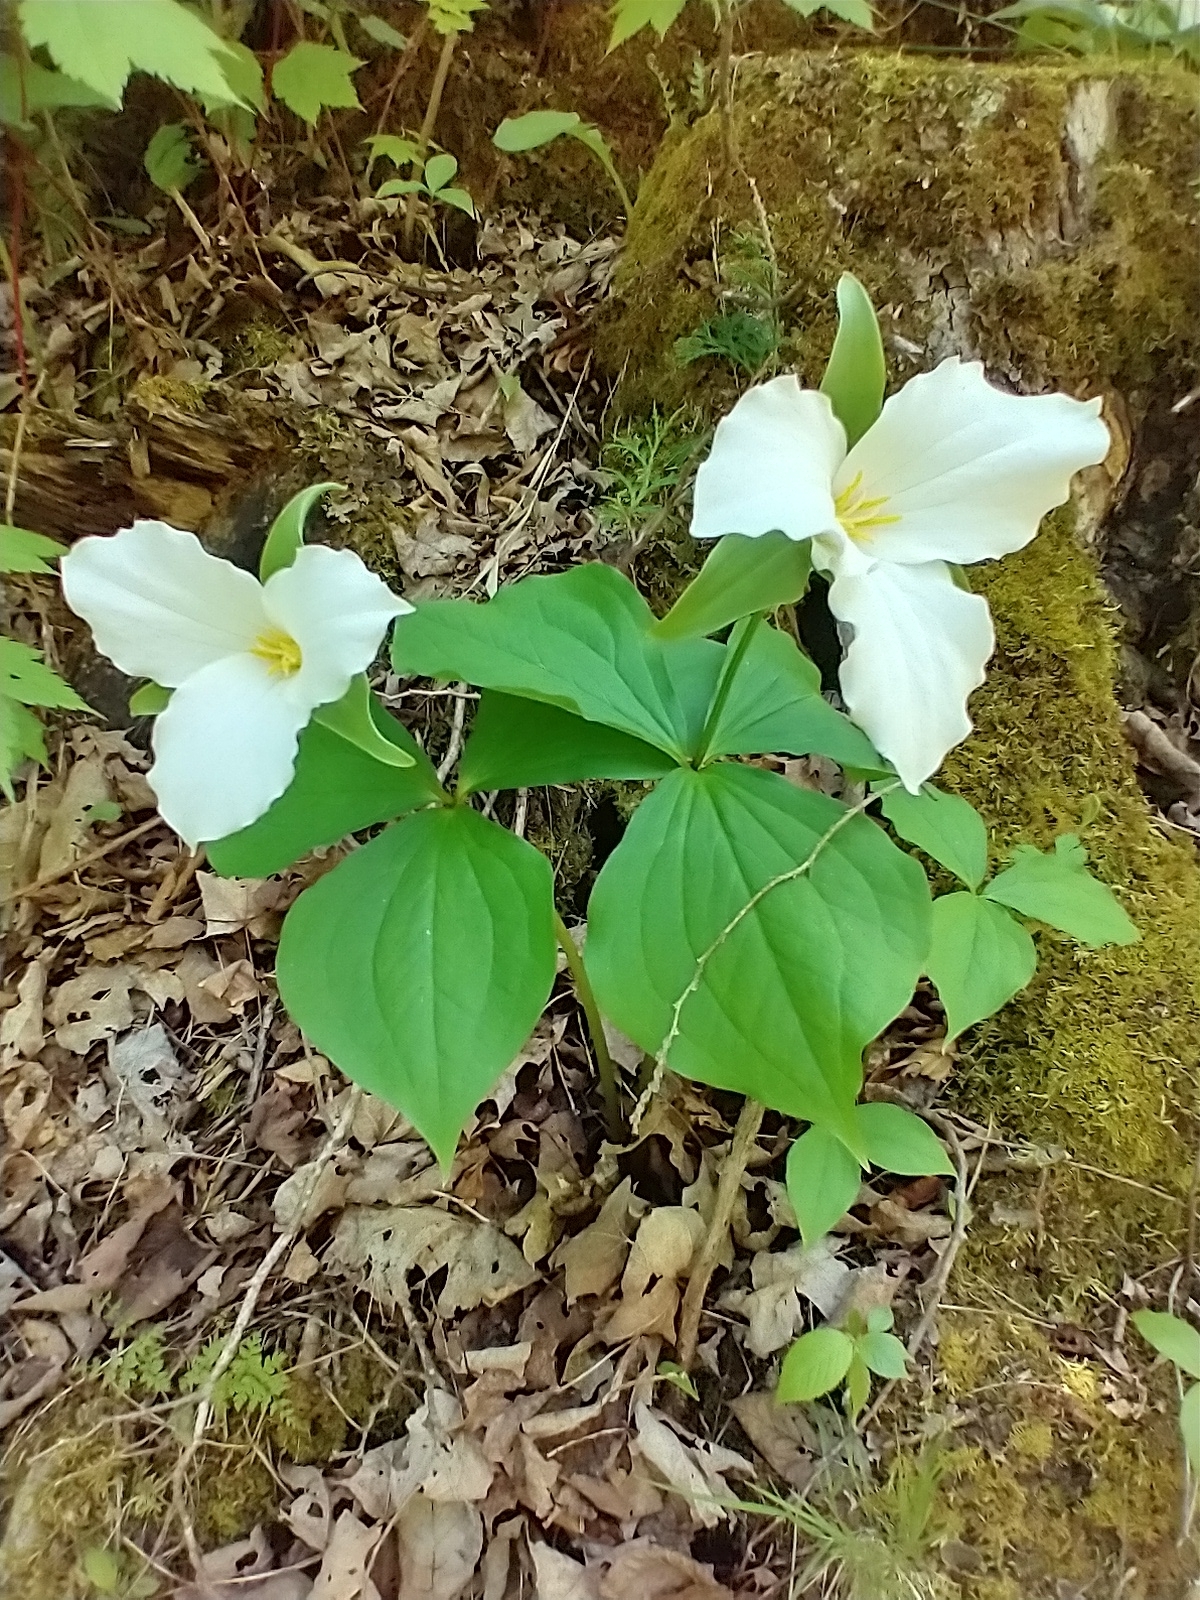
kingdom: Plantae
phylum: Tracheophyta
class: Liliopsida
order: Liliales
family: Melanthiaceae
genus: Trillium
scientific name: Trillium grandiflorum
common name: Great white trillium
